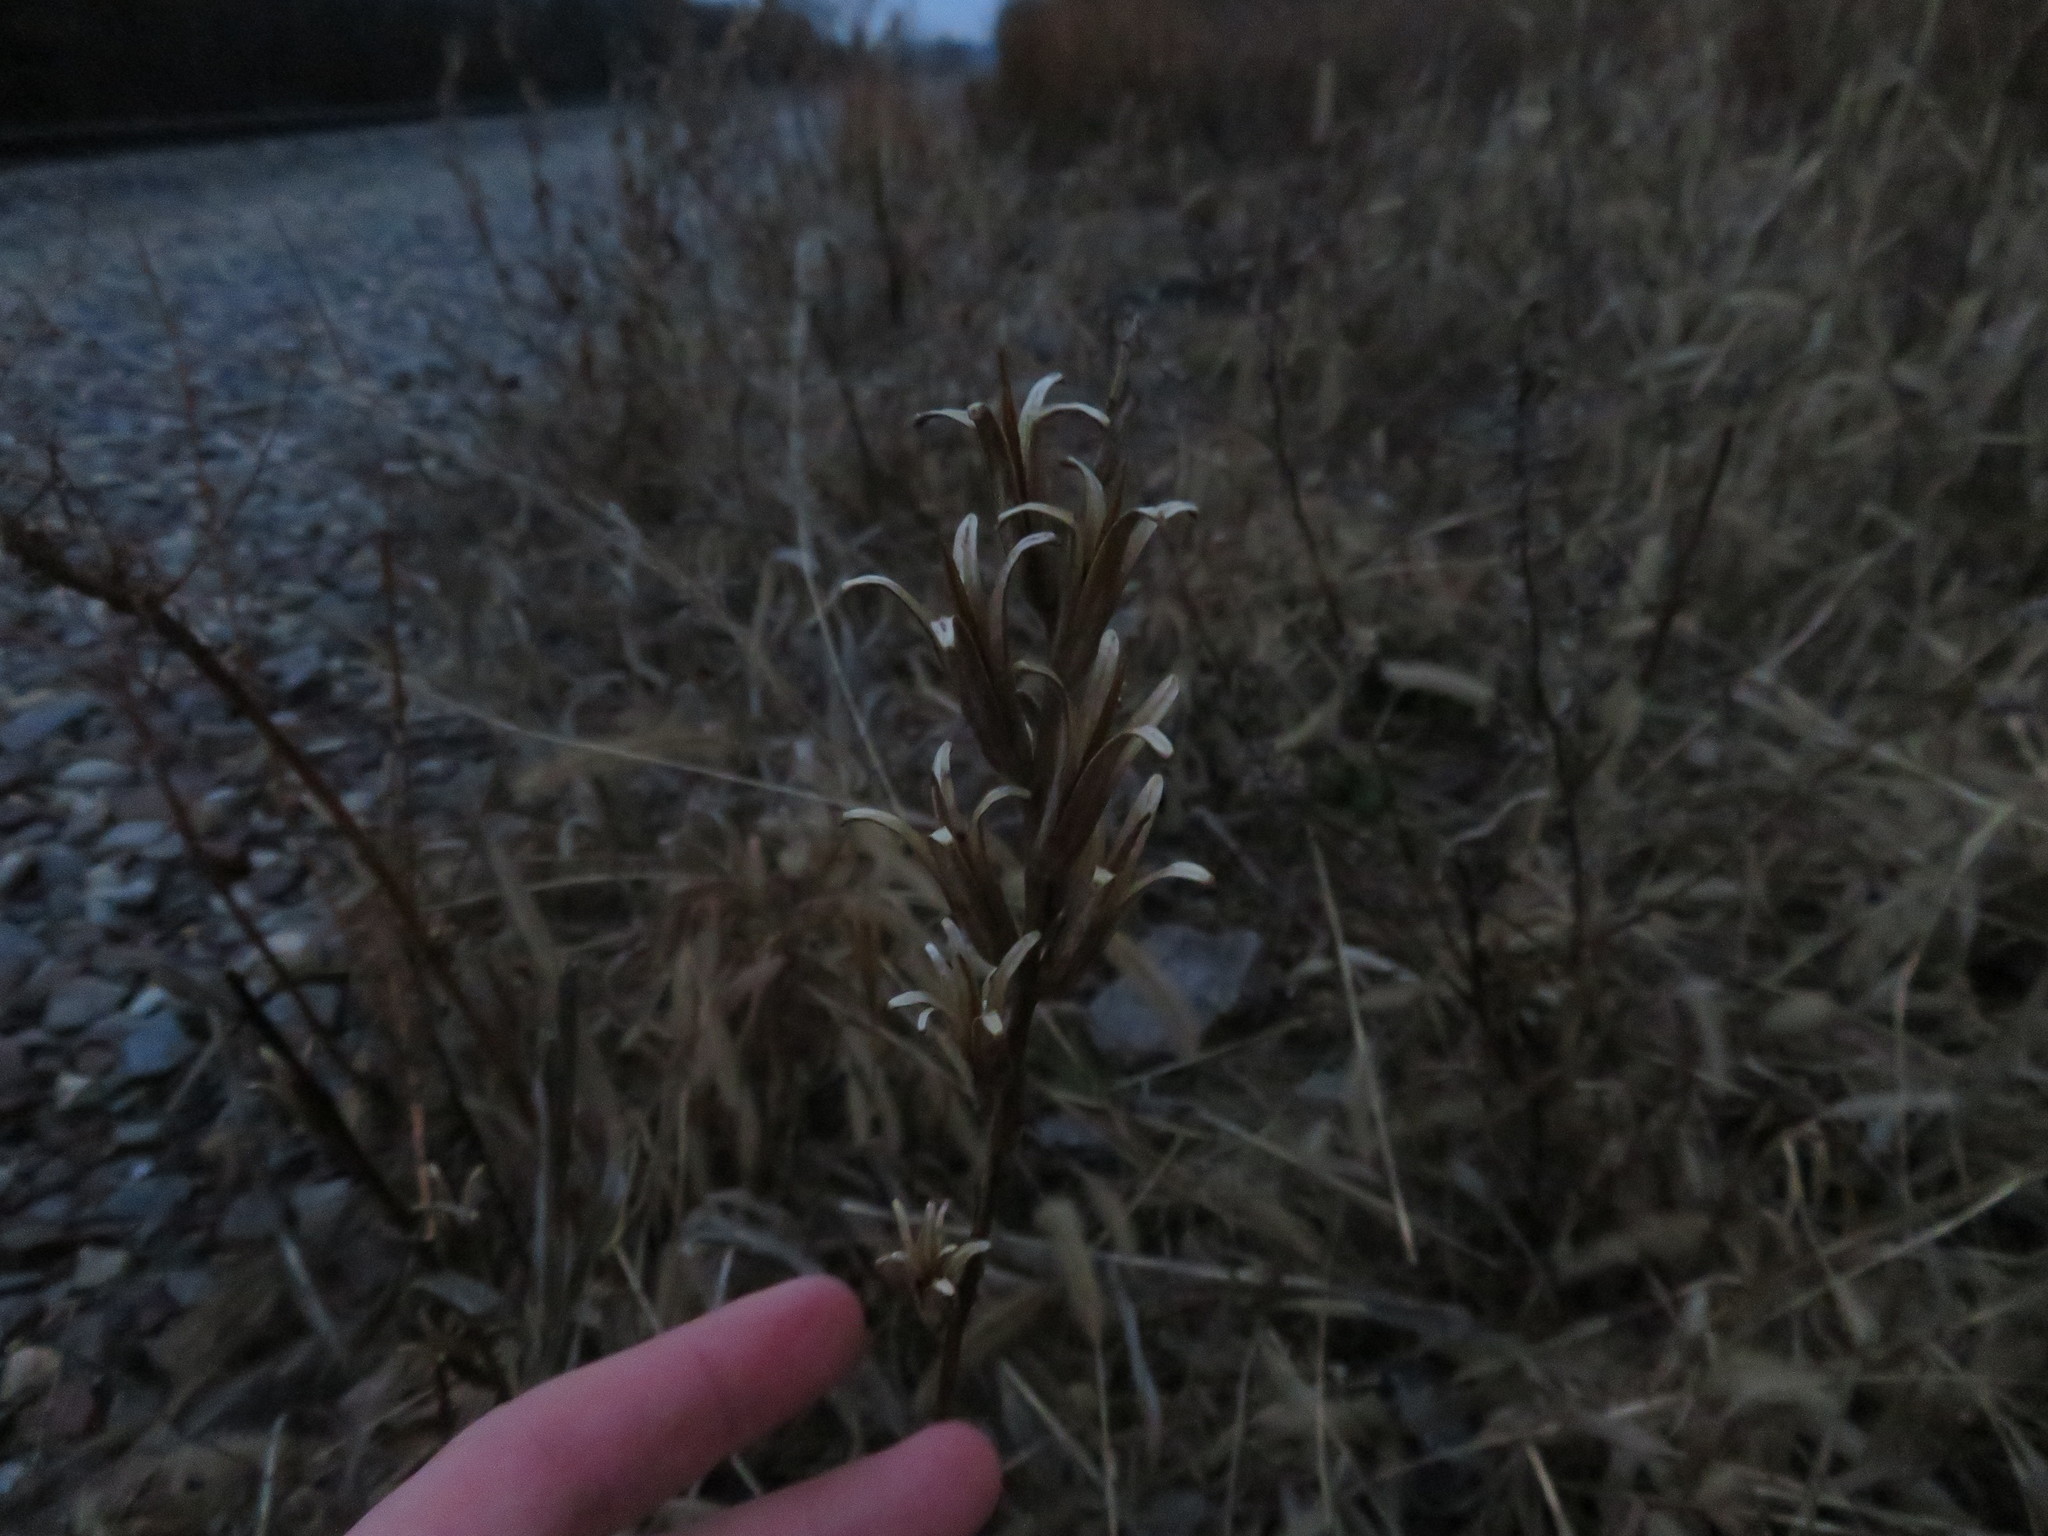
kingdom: Plantae
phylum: Tracheophyta
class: Magnoliopsida
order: Myrtales
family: Onagraceae
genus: Oenothera
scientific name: Oenothera biennis
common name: Common evening-primrose
